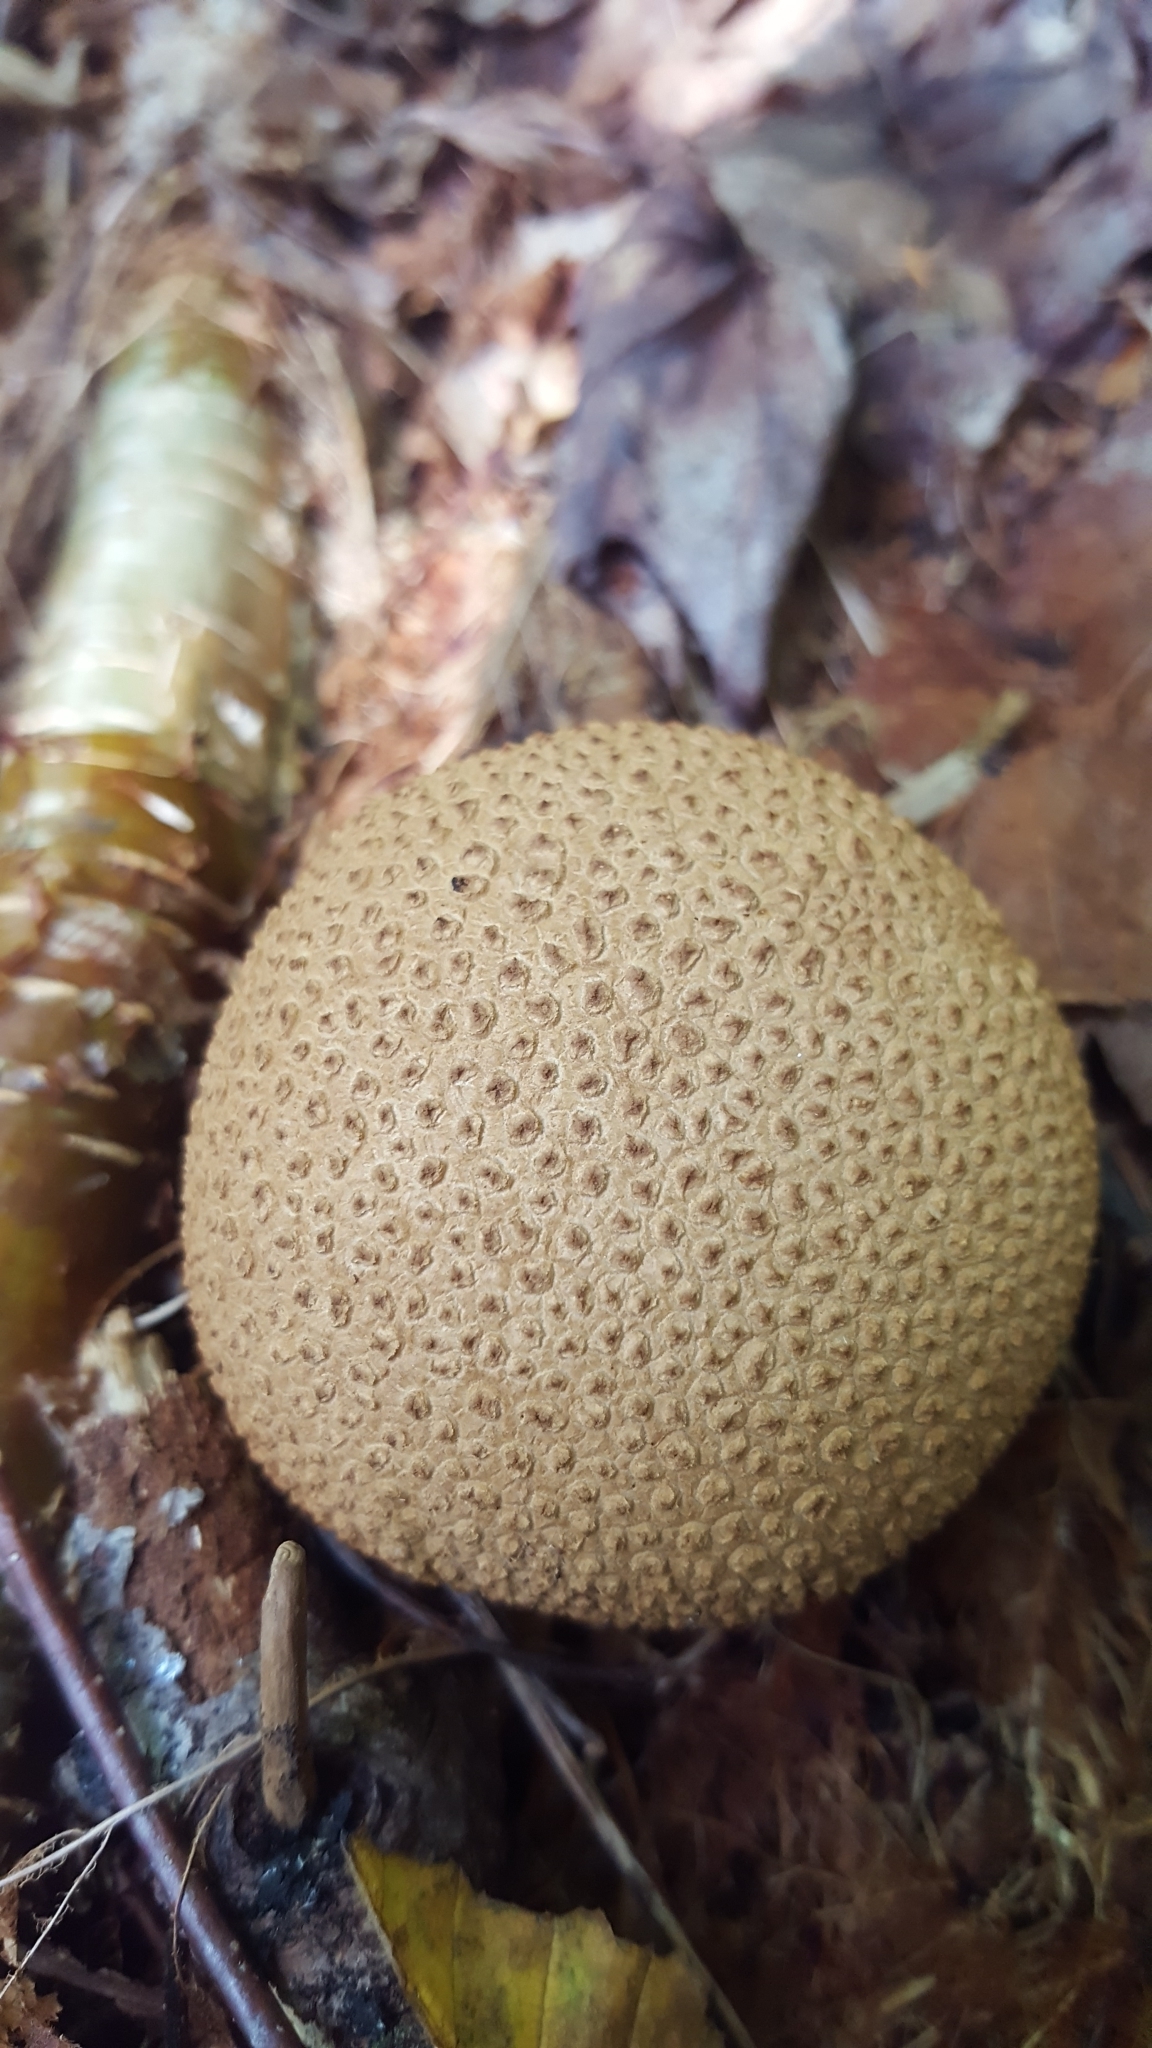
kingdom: Fungi
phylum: Basidiomycota
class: Agaricomycetes
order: Boletales
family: Sclerodermataceae
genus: Scleroderma
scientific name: Scleroderma citrinum
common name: Common earthball
